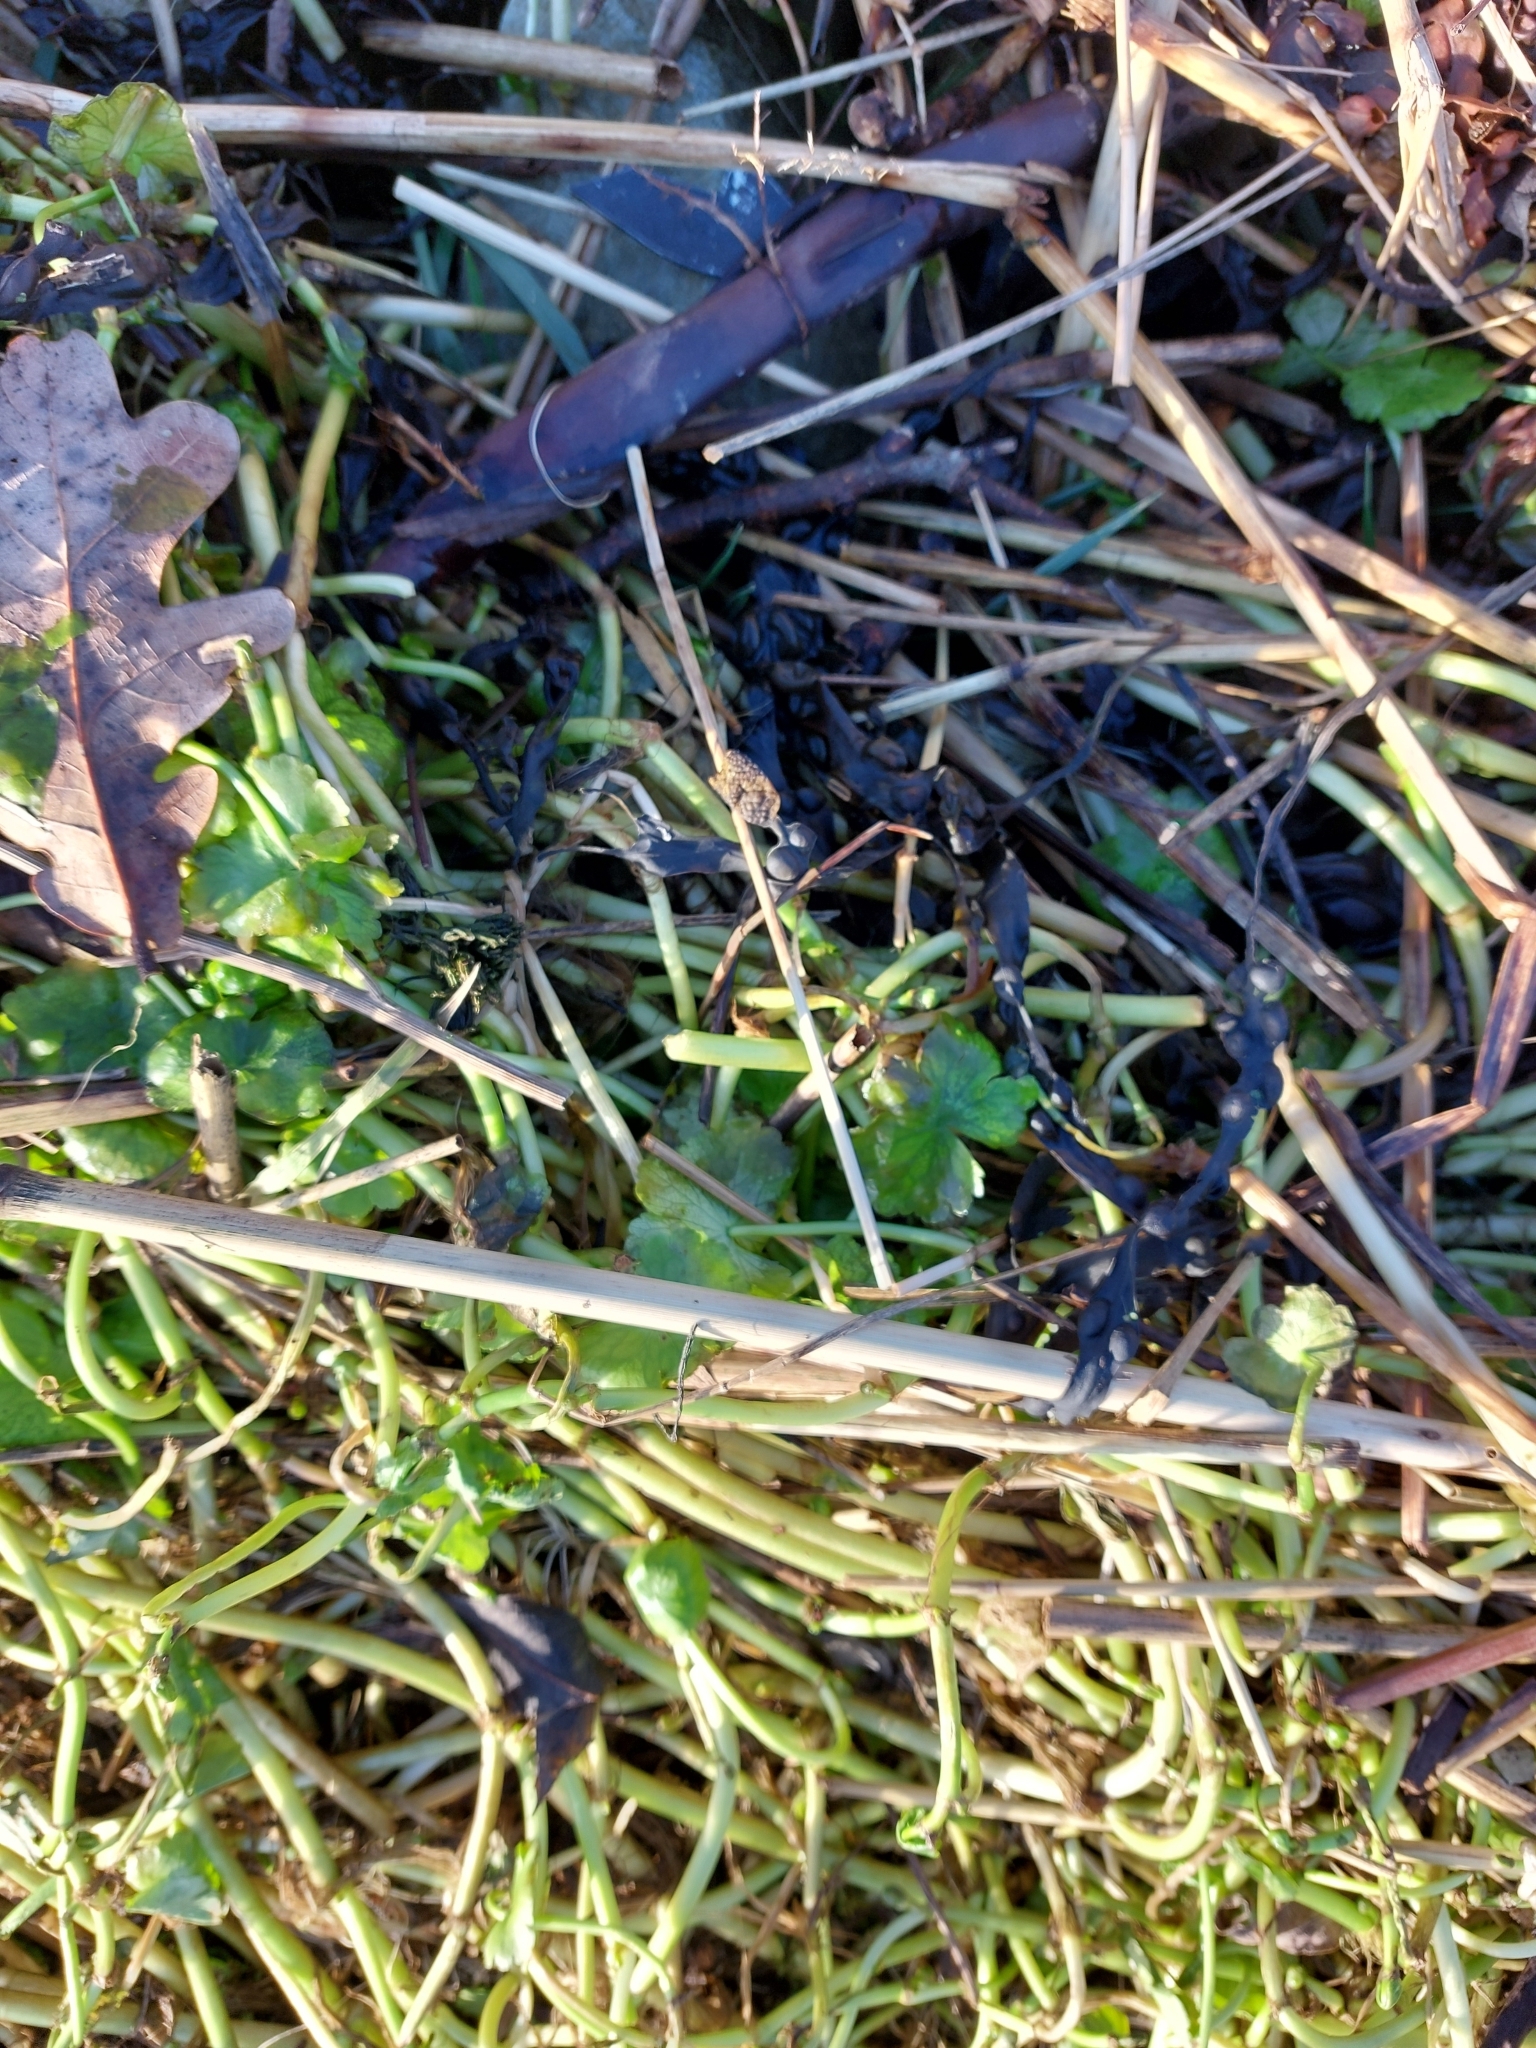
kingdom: Plantae
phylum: Tracheophyta
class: Magnoliopsida
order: Apiales
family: Araliaceae
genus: Hydrocotyle
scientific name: Hydrocotyle ranunculoides
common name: Floating pennywort
